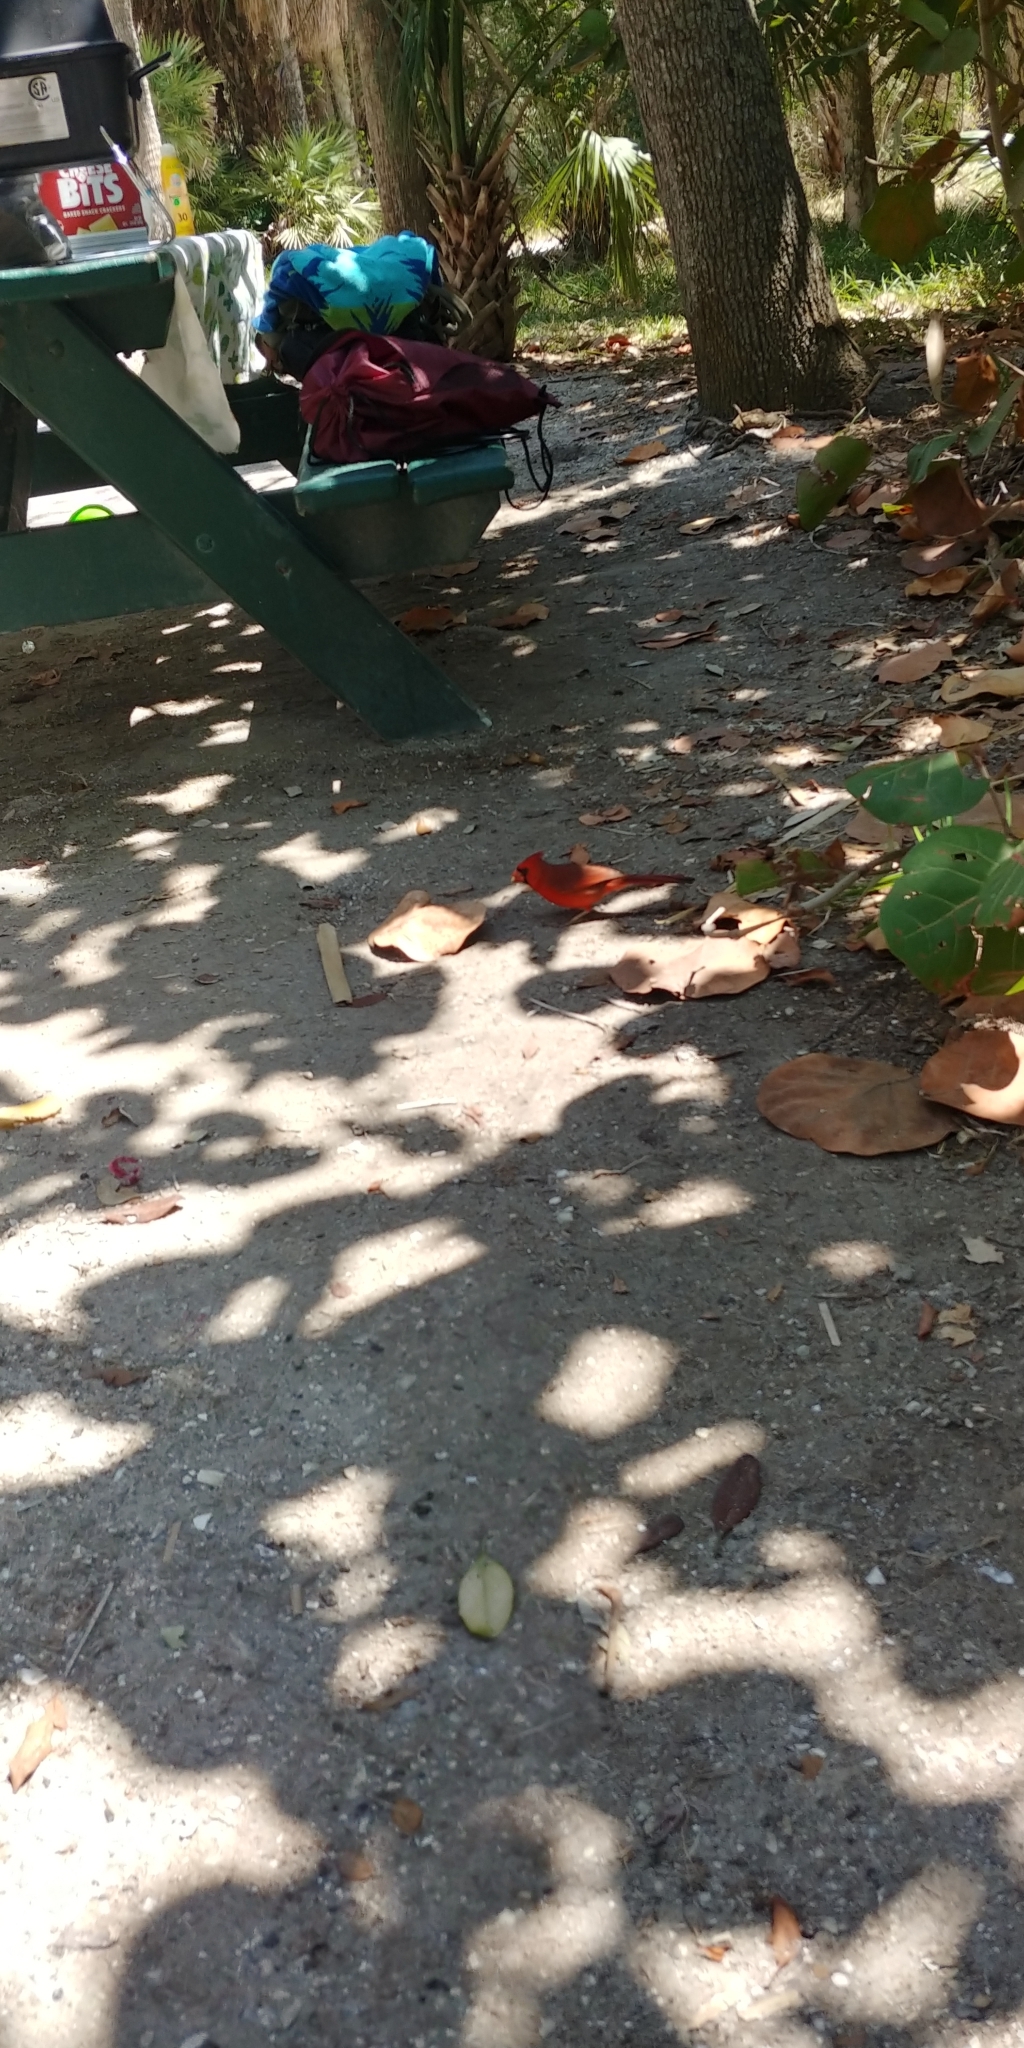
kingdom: Animalia
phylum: Chordata
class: Aves
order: Passeriformes
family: Cardinalidae
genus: Cardinalis
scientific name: Cardinalis cardinalis
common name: Northern cardinal
